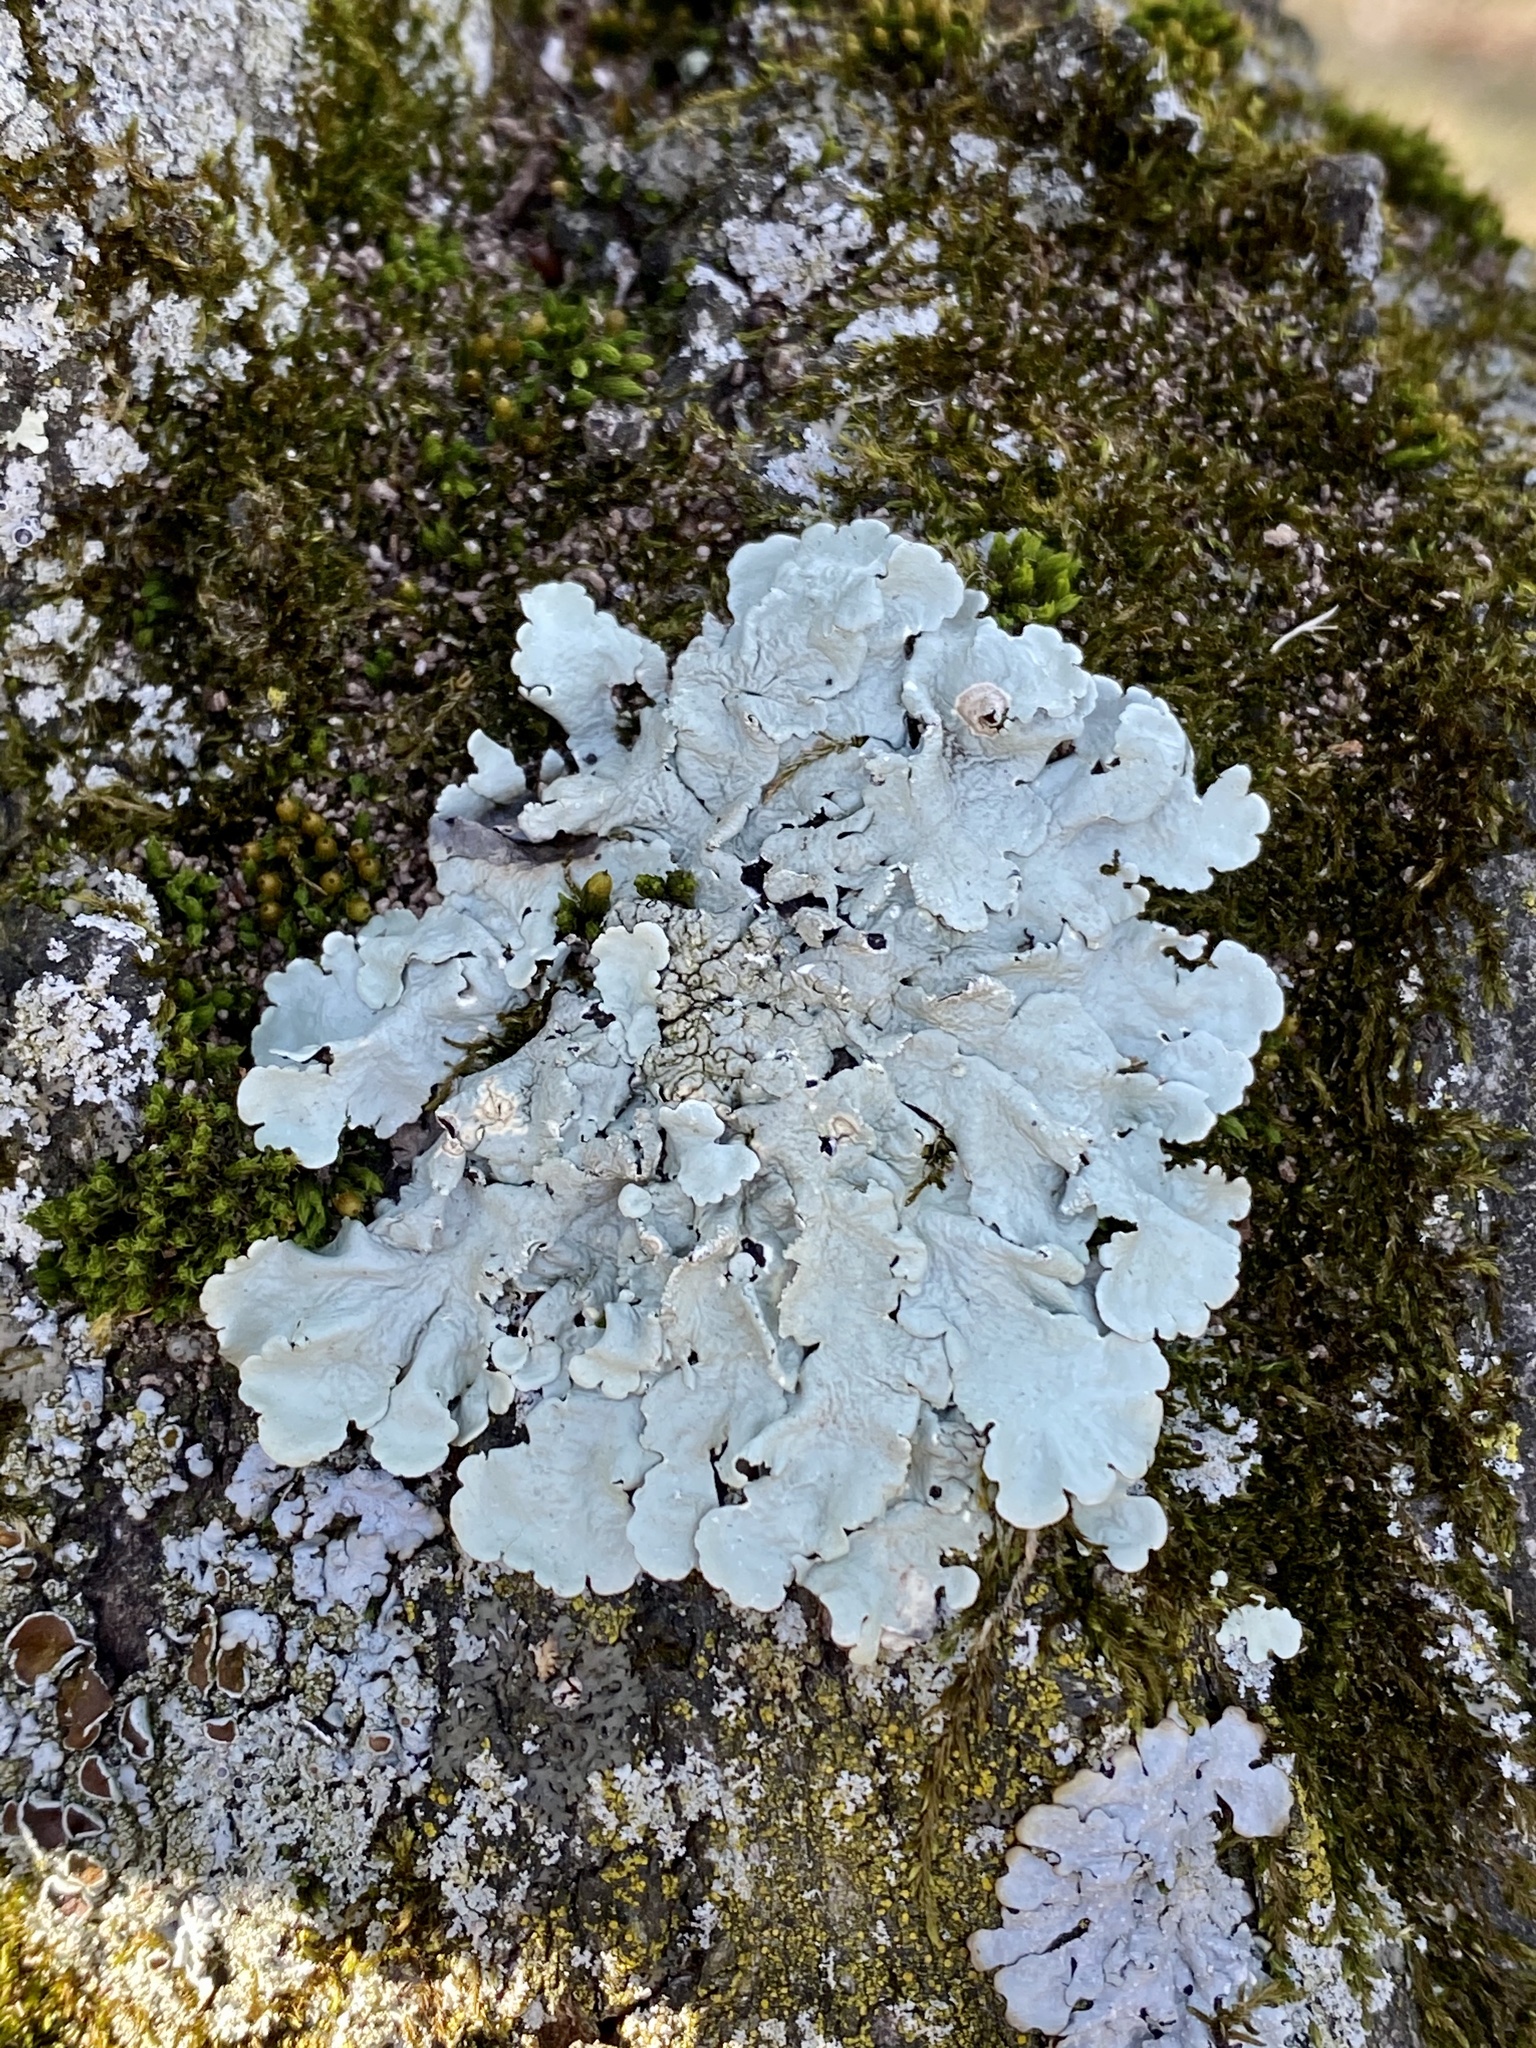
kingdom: Fungi
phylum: Ascomycota
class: Lecanoromycetes
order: Lecanorales
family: Parmeliaceae
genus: Flavoparmelia
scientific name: Flavoparmelia caperata
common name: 40-mile per hour lichen
